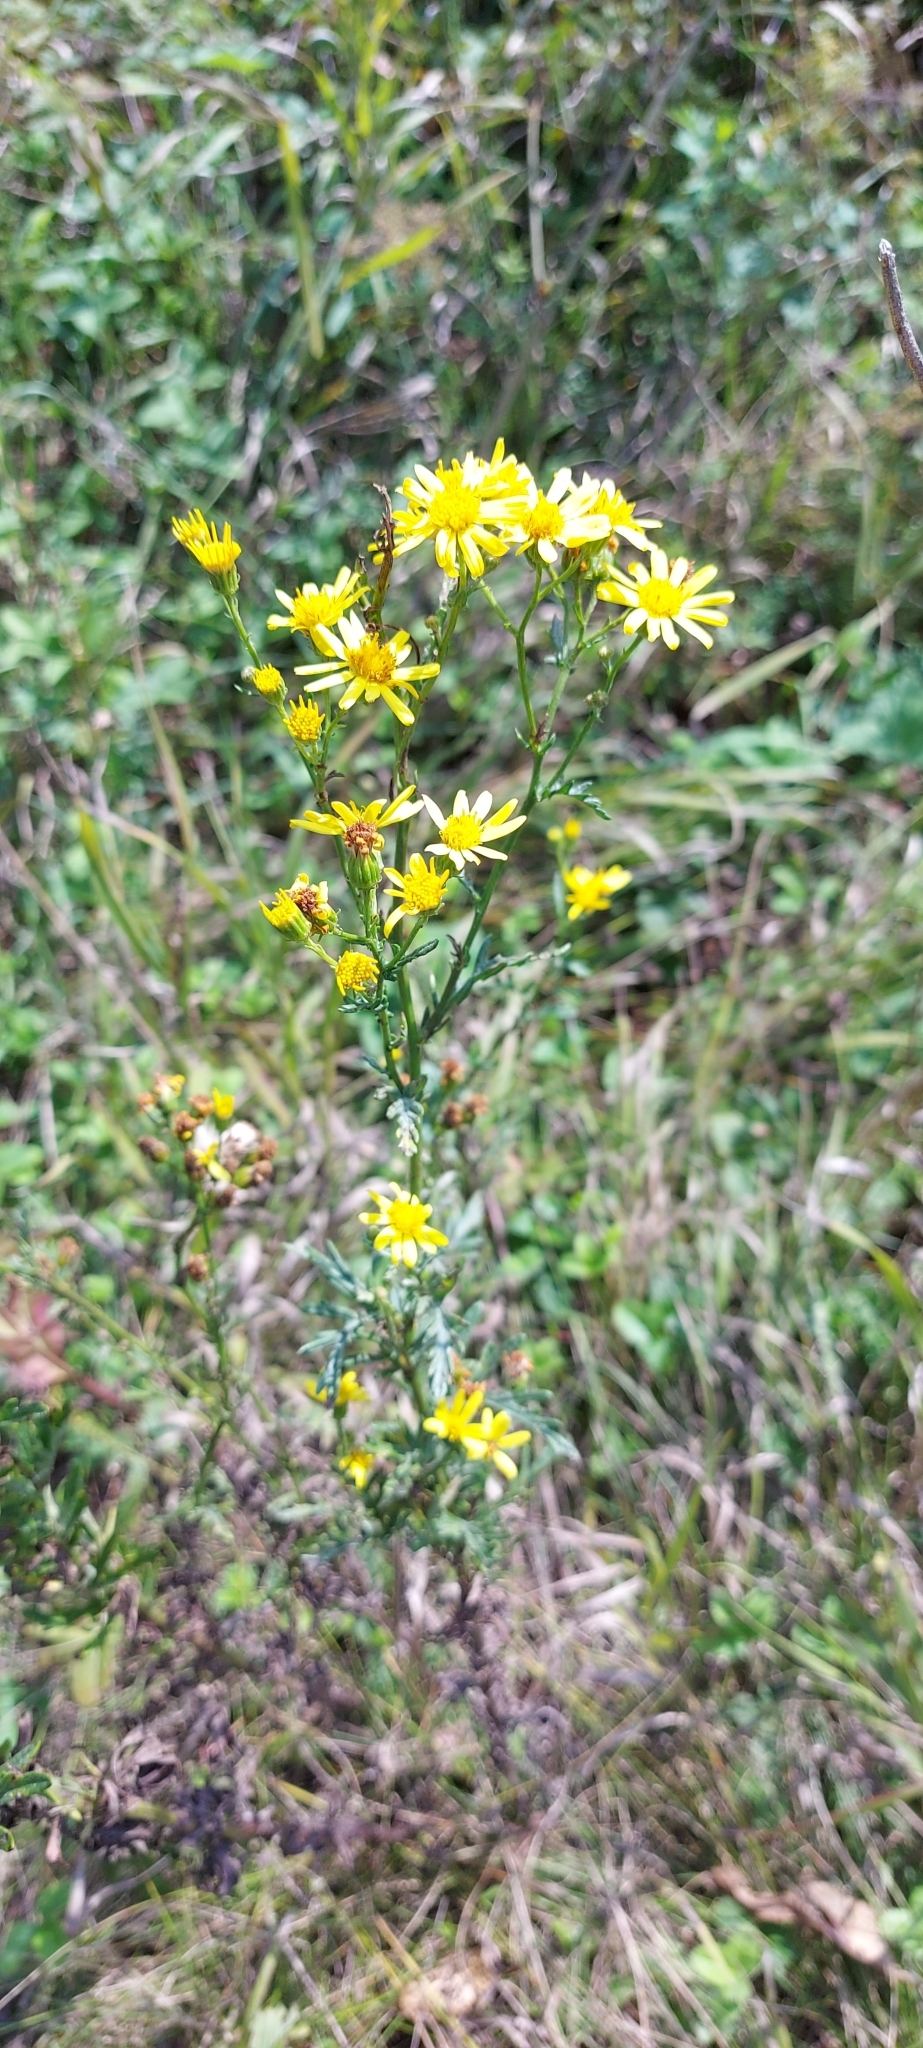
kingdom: Plantae
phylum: Tracheophyta
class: Magnoliopsida
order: Asterales
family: Asteraceae
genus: Jacobaea
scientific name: Jacobaea erucifolia
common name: Hoary ragwort
